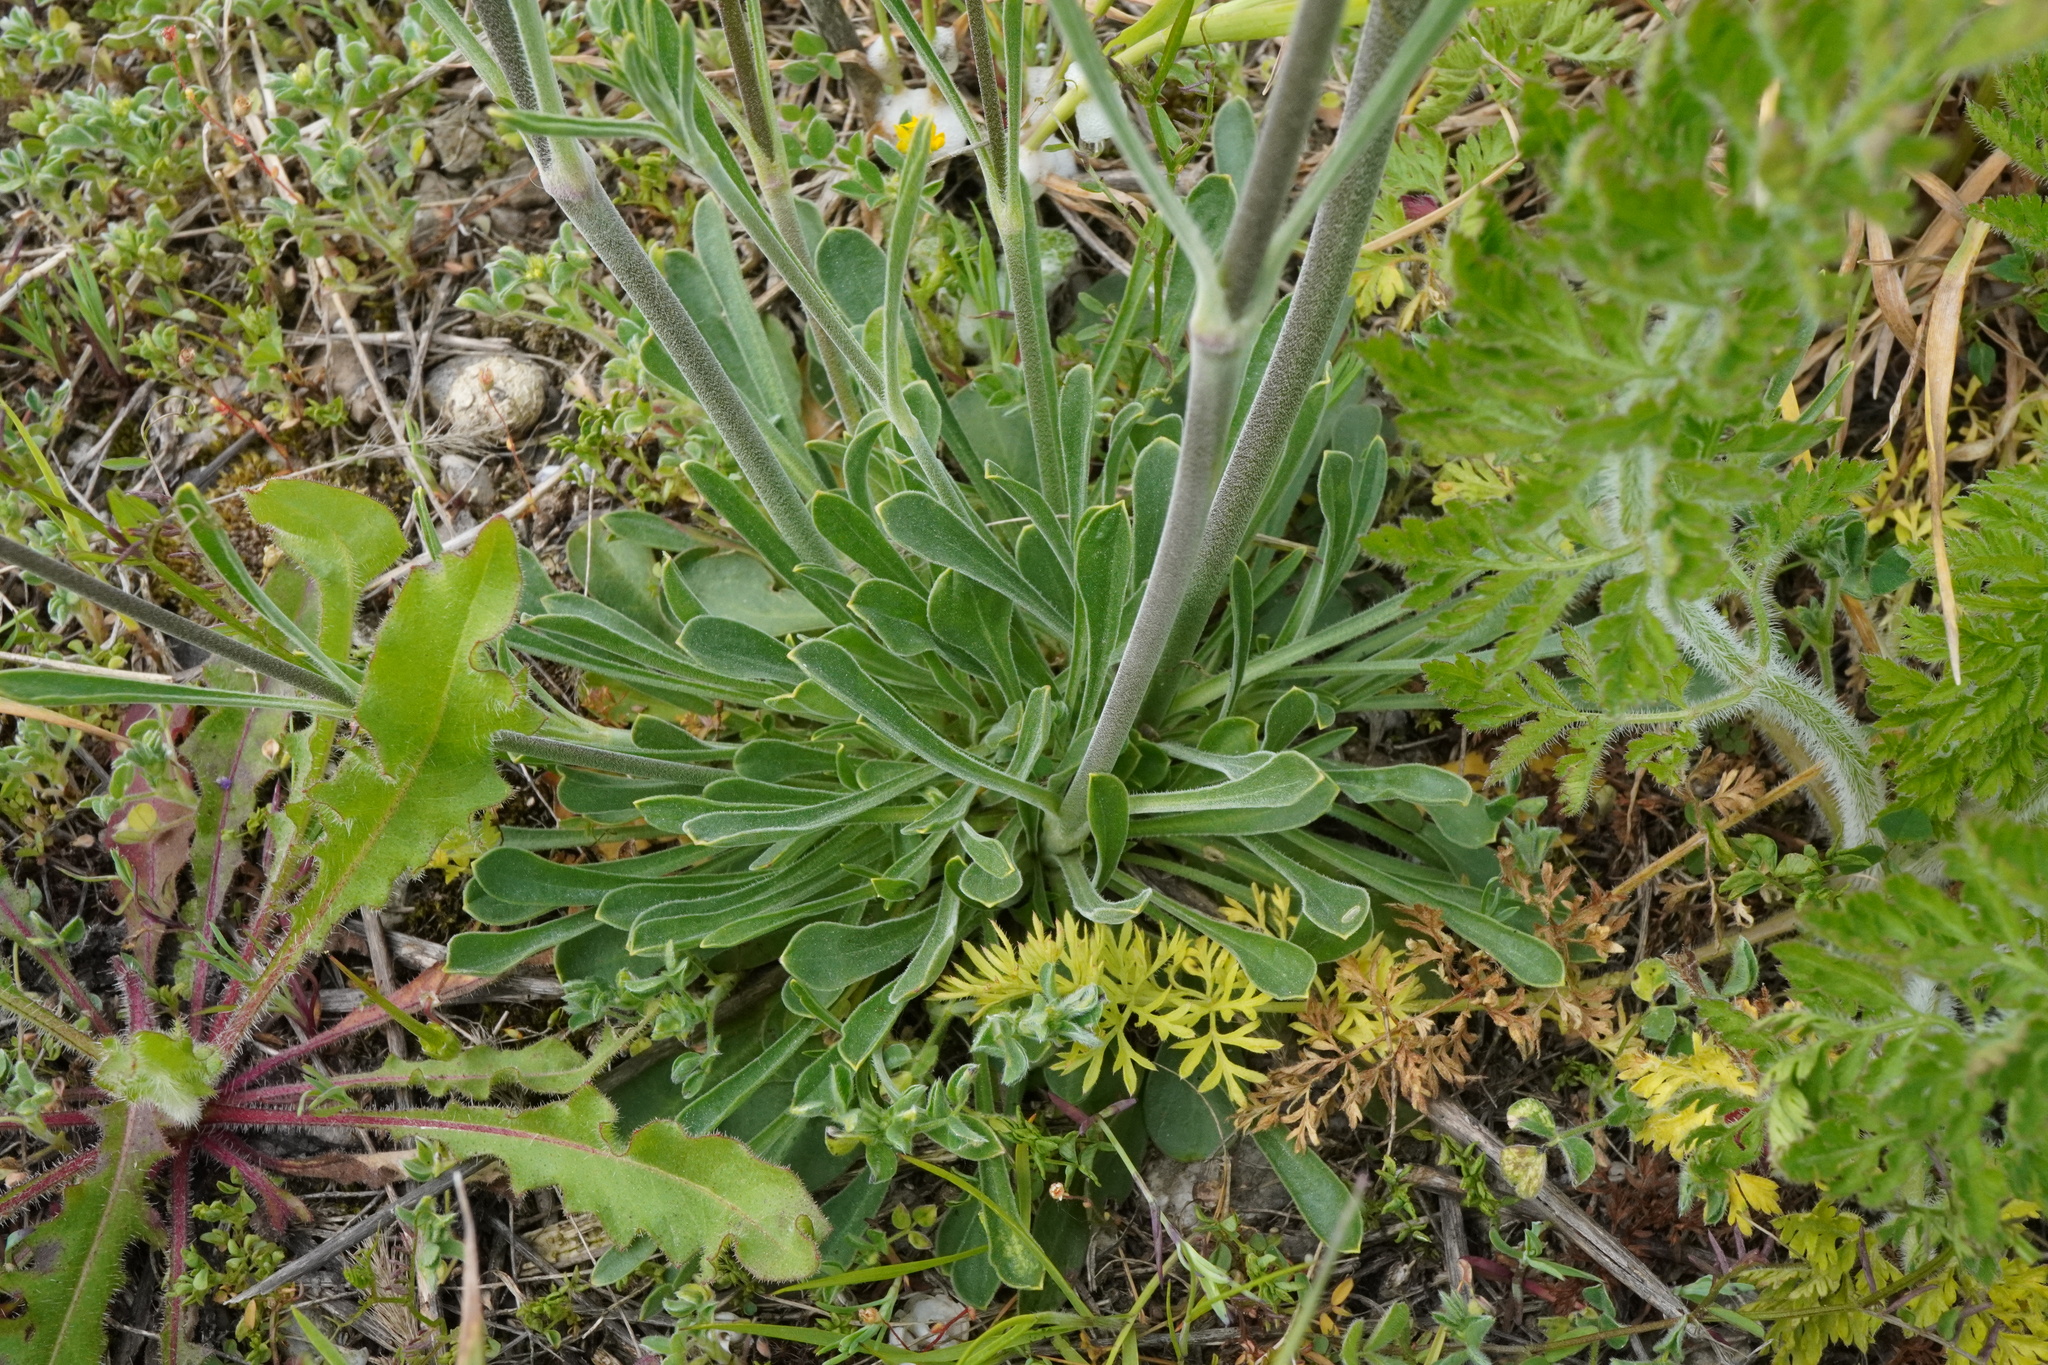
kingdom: Plantae
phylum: Tracheophyta
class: Magnoliopsida
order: Caryophyllales
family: Caryophyllaceae
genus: Silene
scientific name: Silene otites
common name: Spanish catchfly
